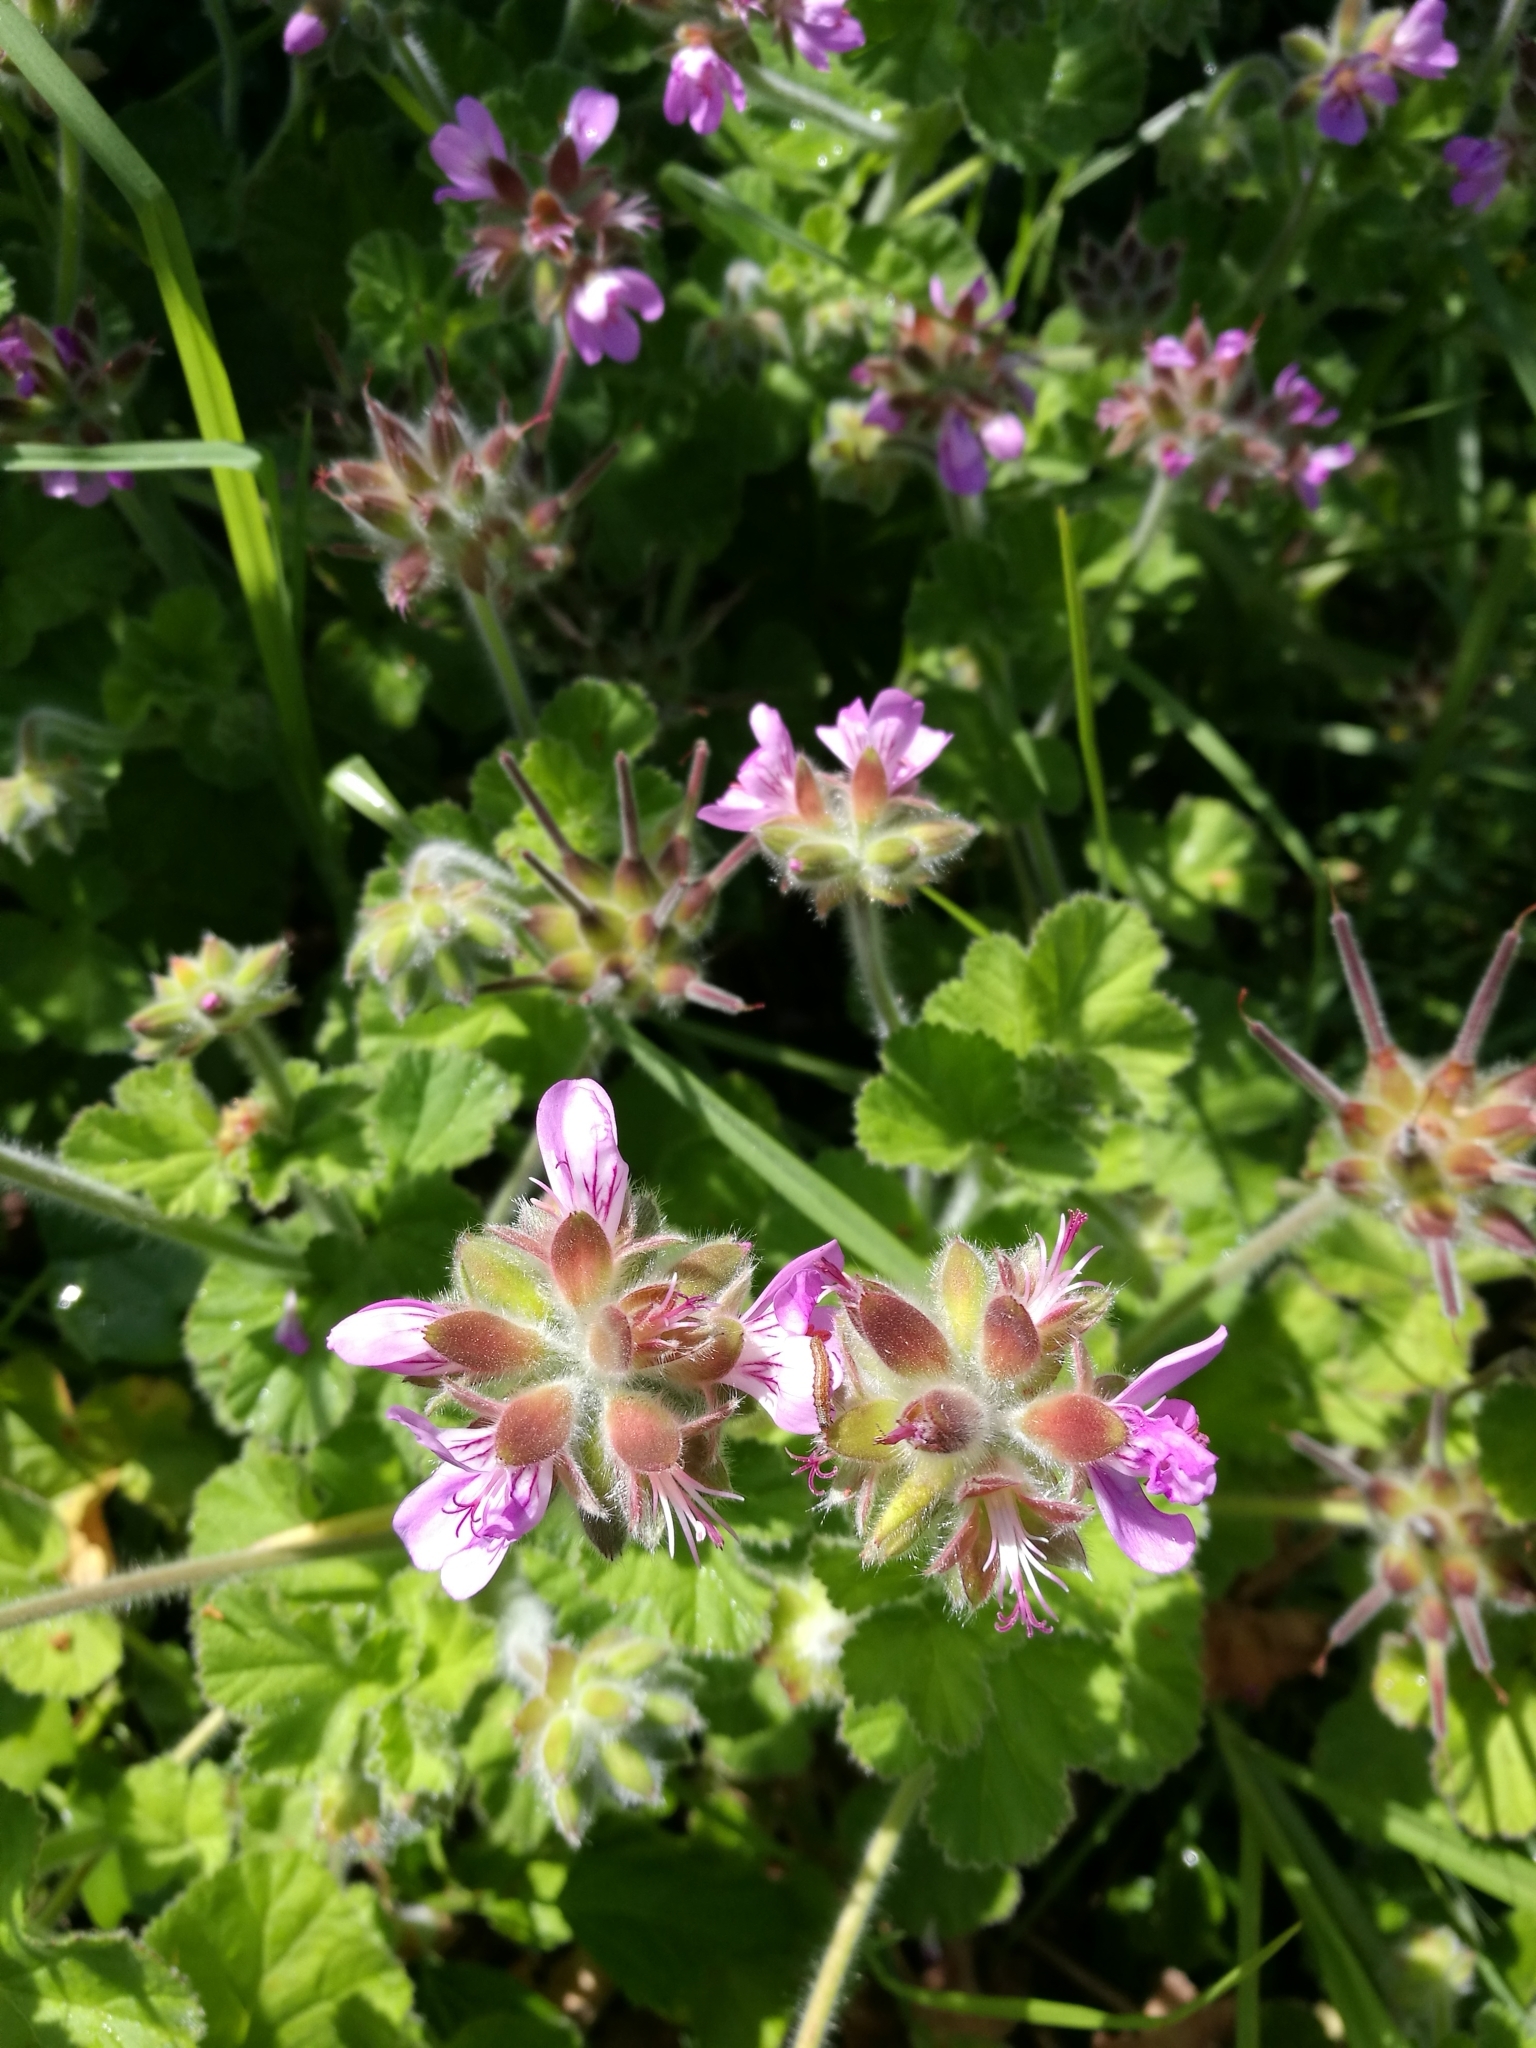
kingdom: Plantae
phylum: Tracheophyta
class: Magnoliopsida
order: Geraniales
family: Geraniaceae
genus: Pelargonium
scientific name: Pelargonium capitatum
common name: Rose scented geranium
